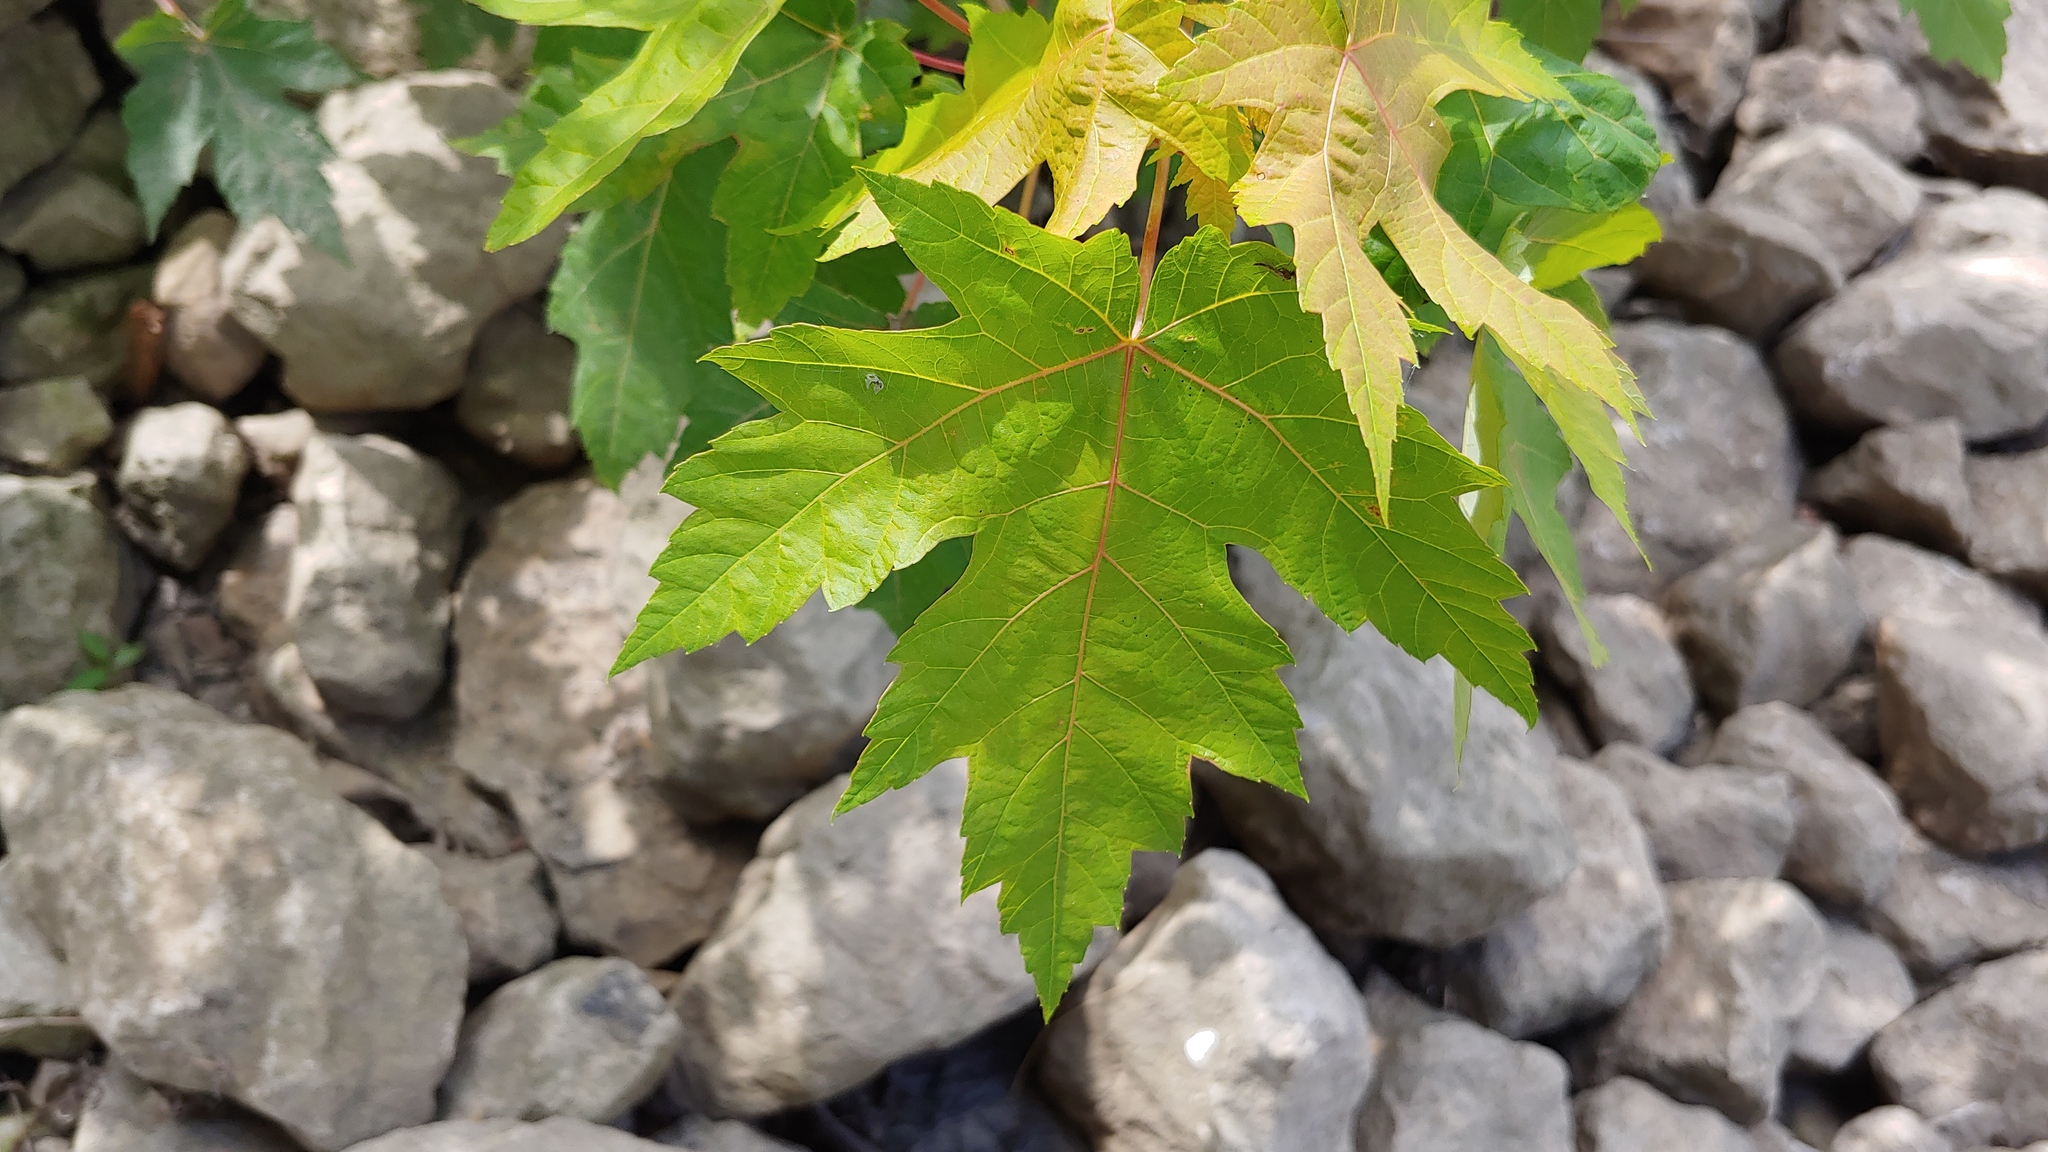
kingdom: Plantae
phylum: Tracheophyta
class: Magnoliopsida
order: Sapindales
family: Sapindaceae
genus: Acer
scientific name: Acer saccharinum
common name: Silver maple
